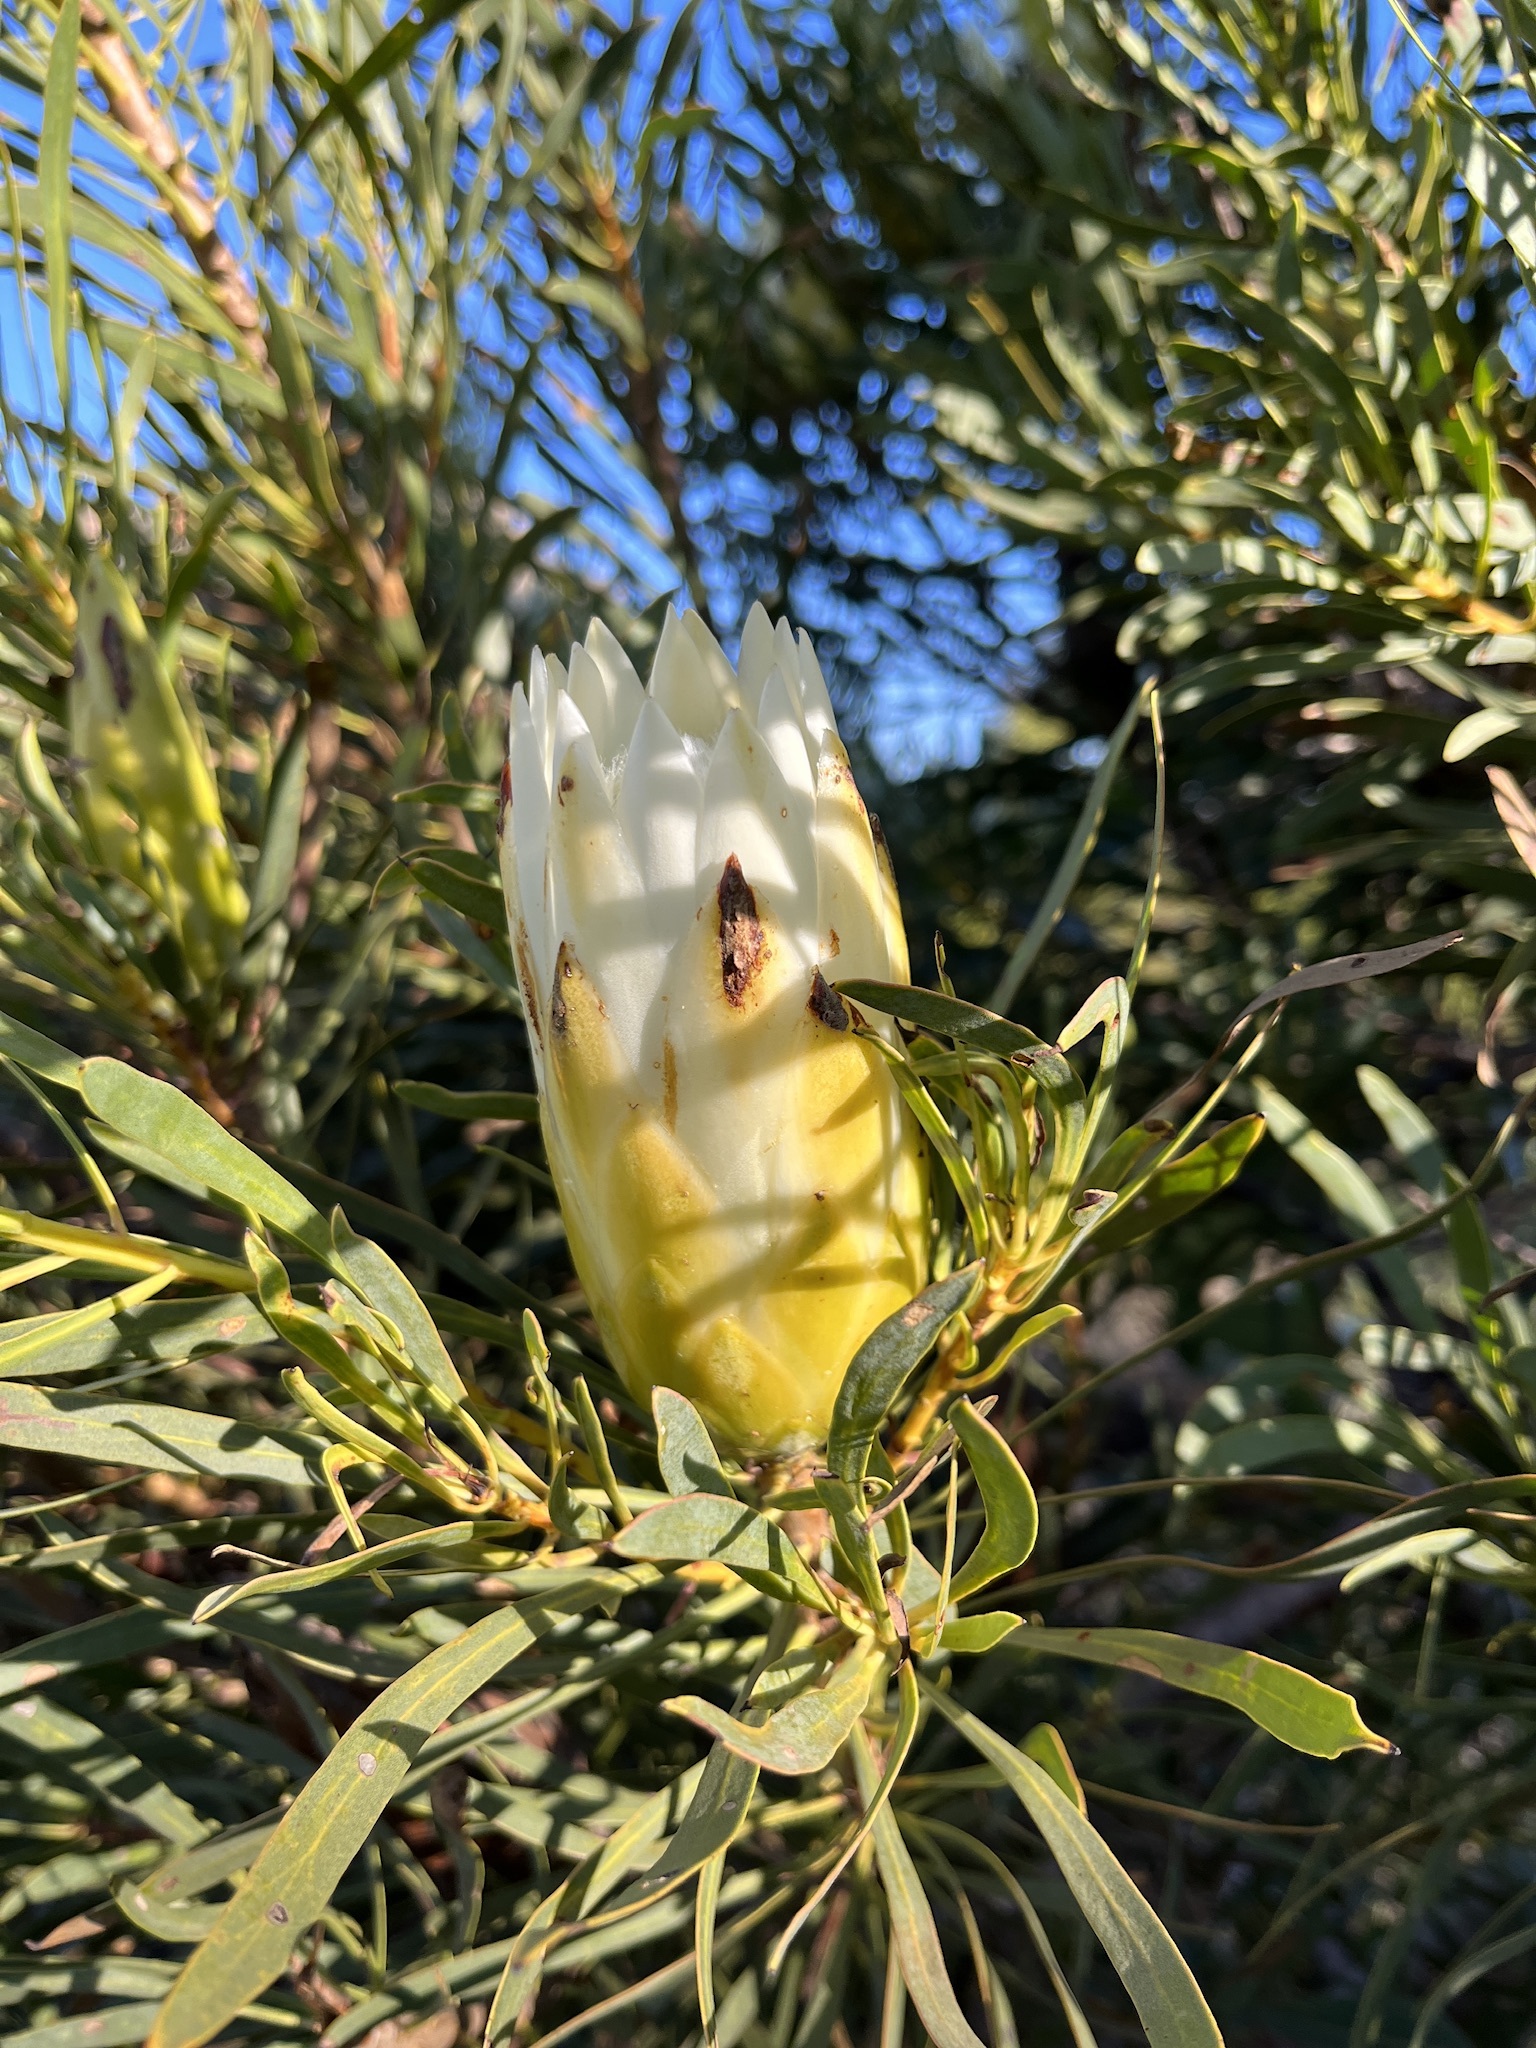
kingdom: Plantae
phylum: Tracheophyta
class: Magnoliopsida
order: Proteales
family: Proteaceae
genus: Protea
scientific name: Protea repens
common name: Sugarbush
